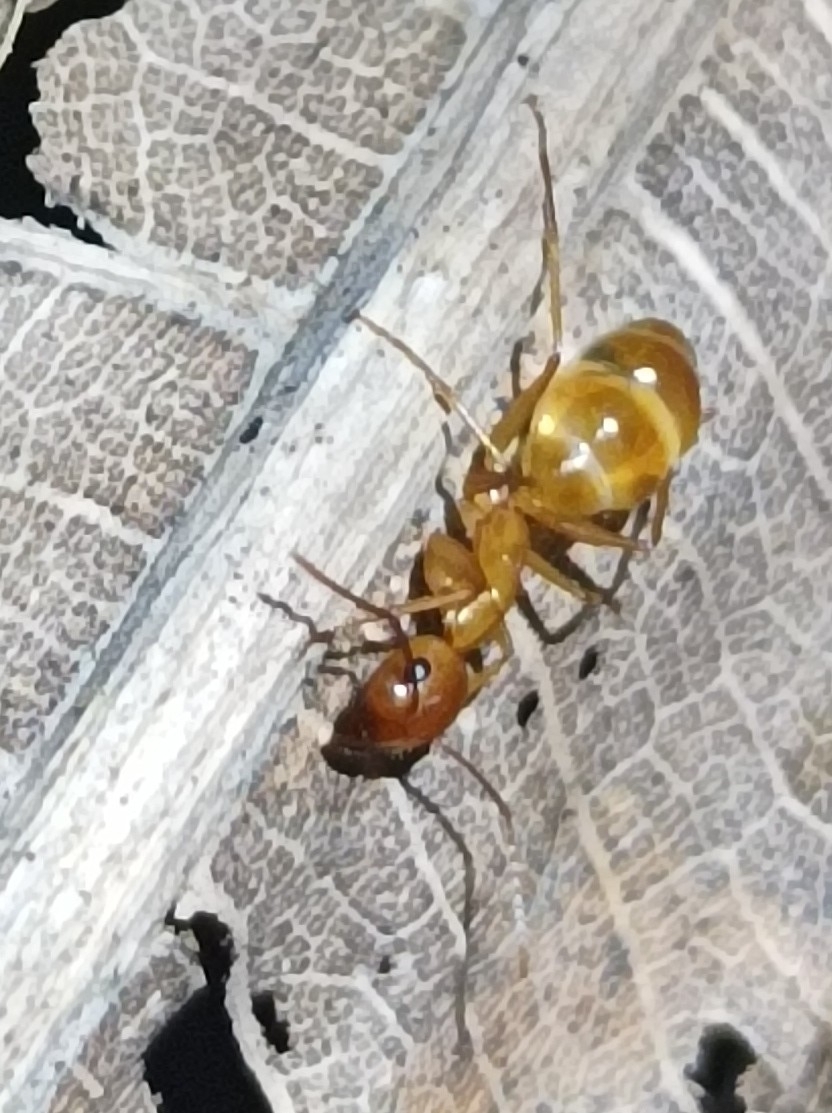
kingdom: Animalia
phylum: Arthropoda
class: Insecta
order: Hymenoptera
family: Formicidae
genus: Camponotus
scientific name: Camponotus chloroticus
